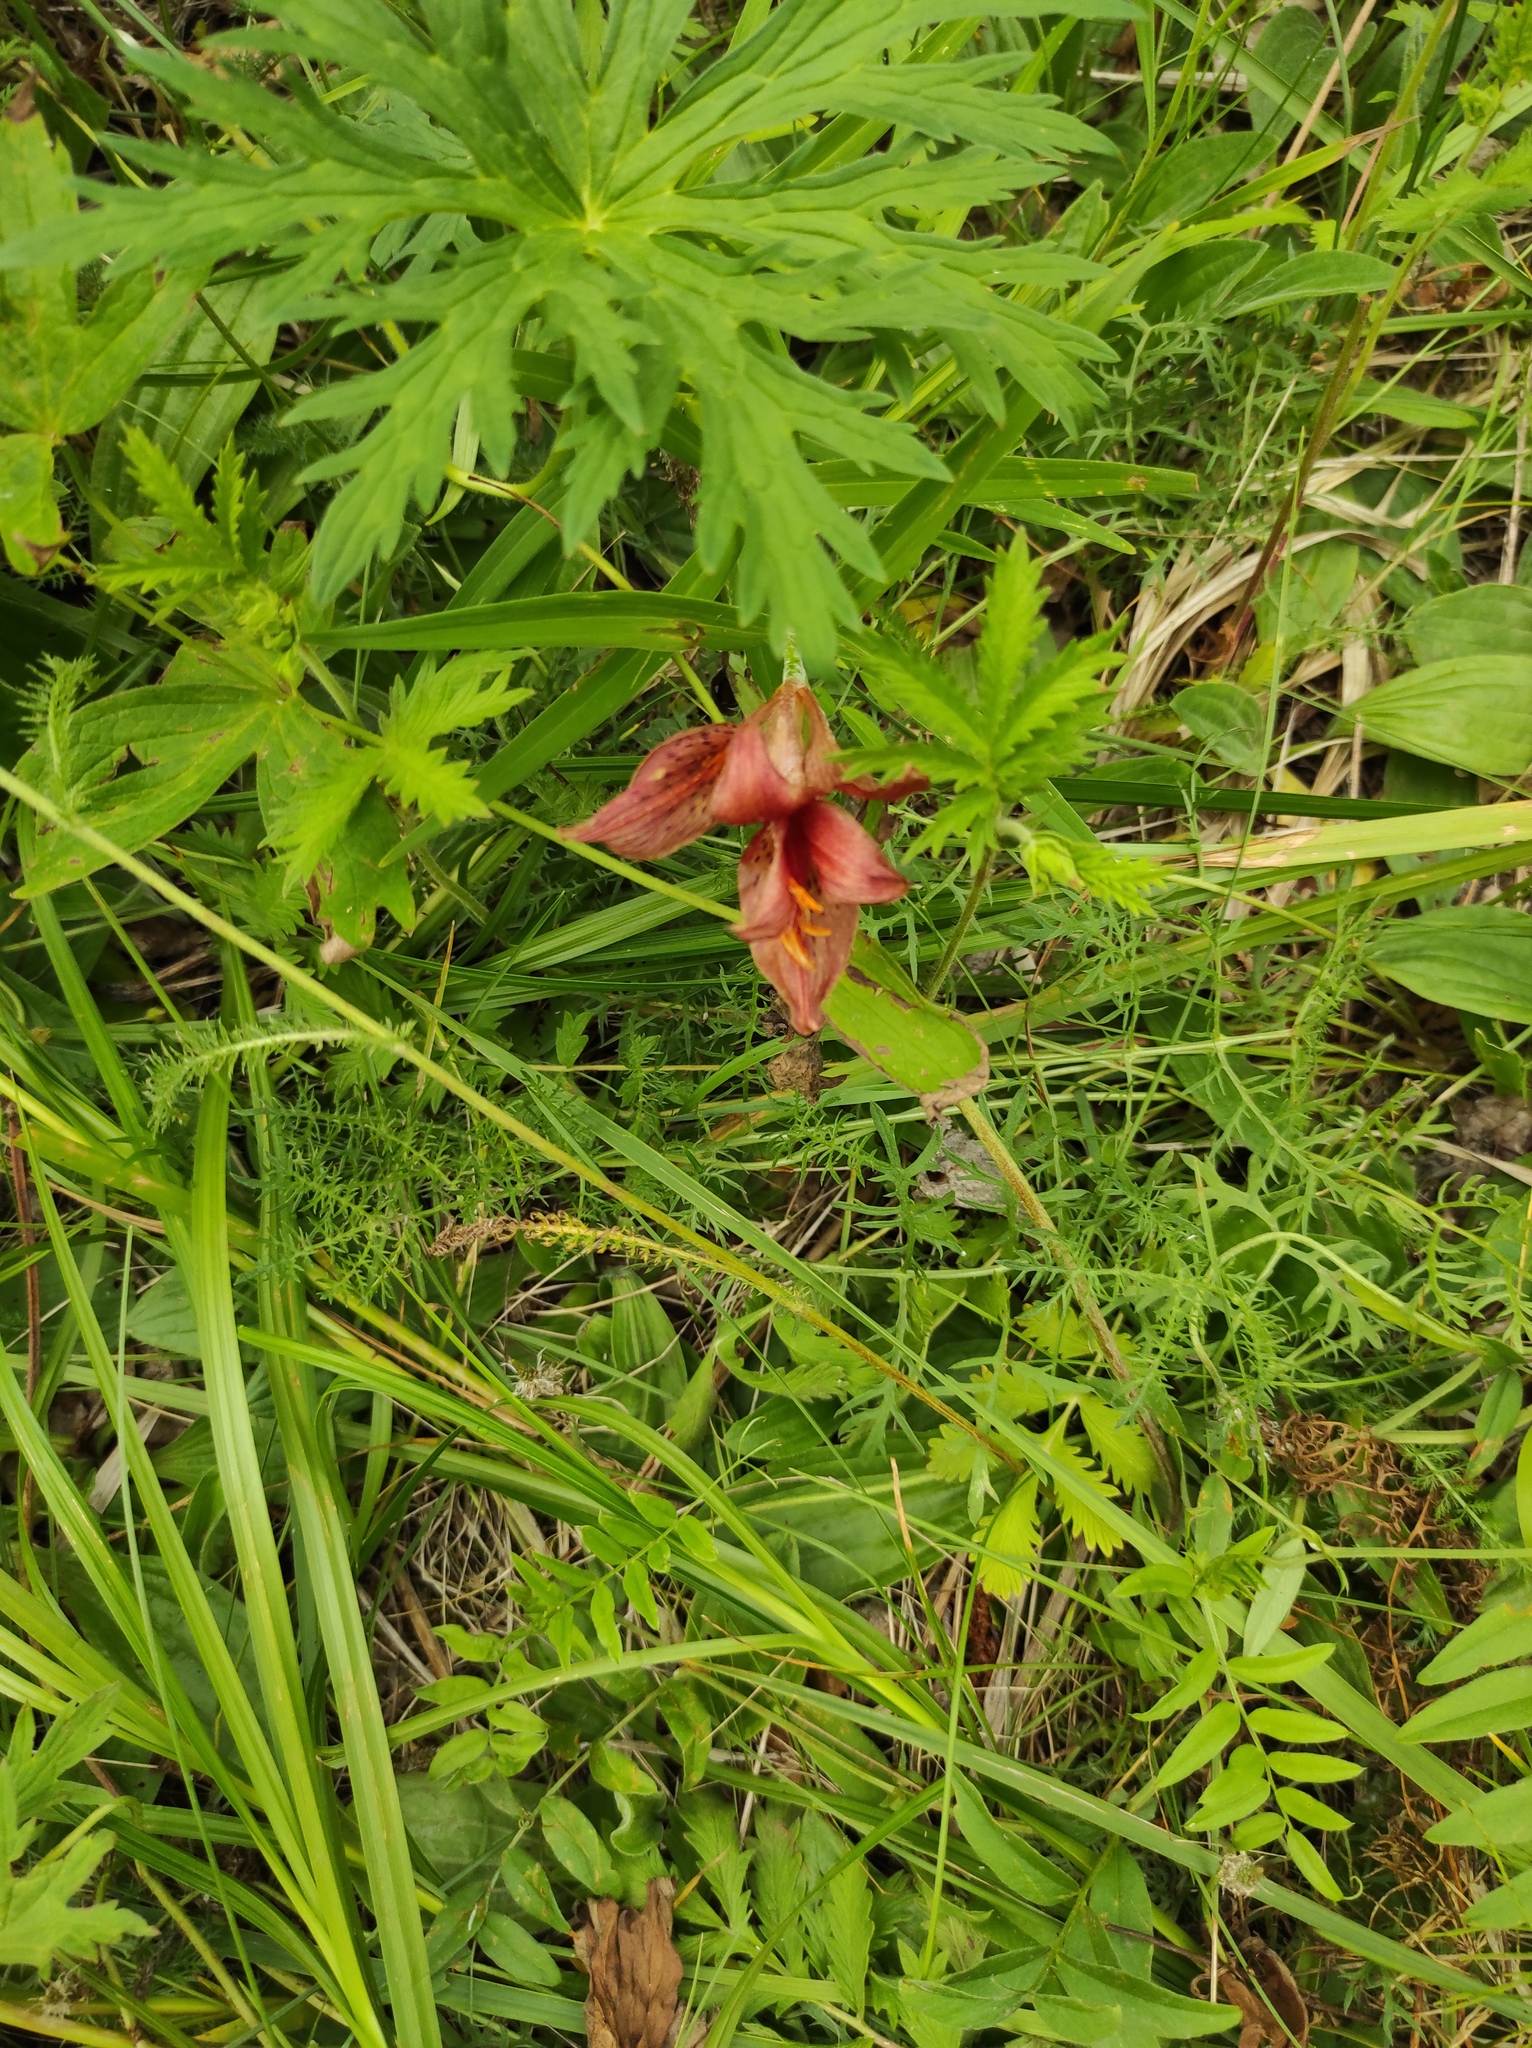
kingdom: Plantae
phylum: Tracheophyta
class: Liliopsida
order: Liliales
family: Liliaceae
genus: Lilium
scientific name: Lilium pensylvanicum
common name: Candlestick lily
